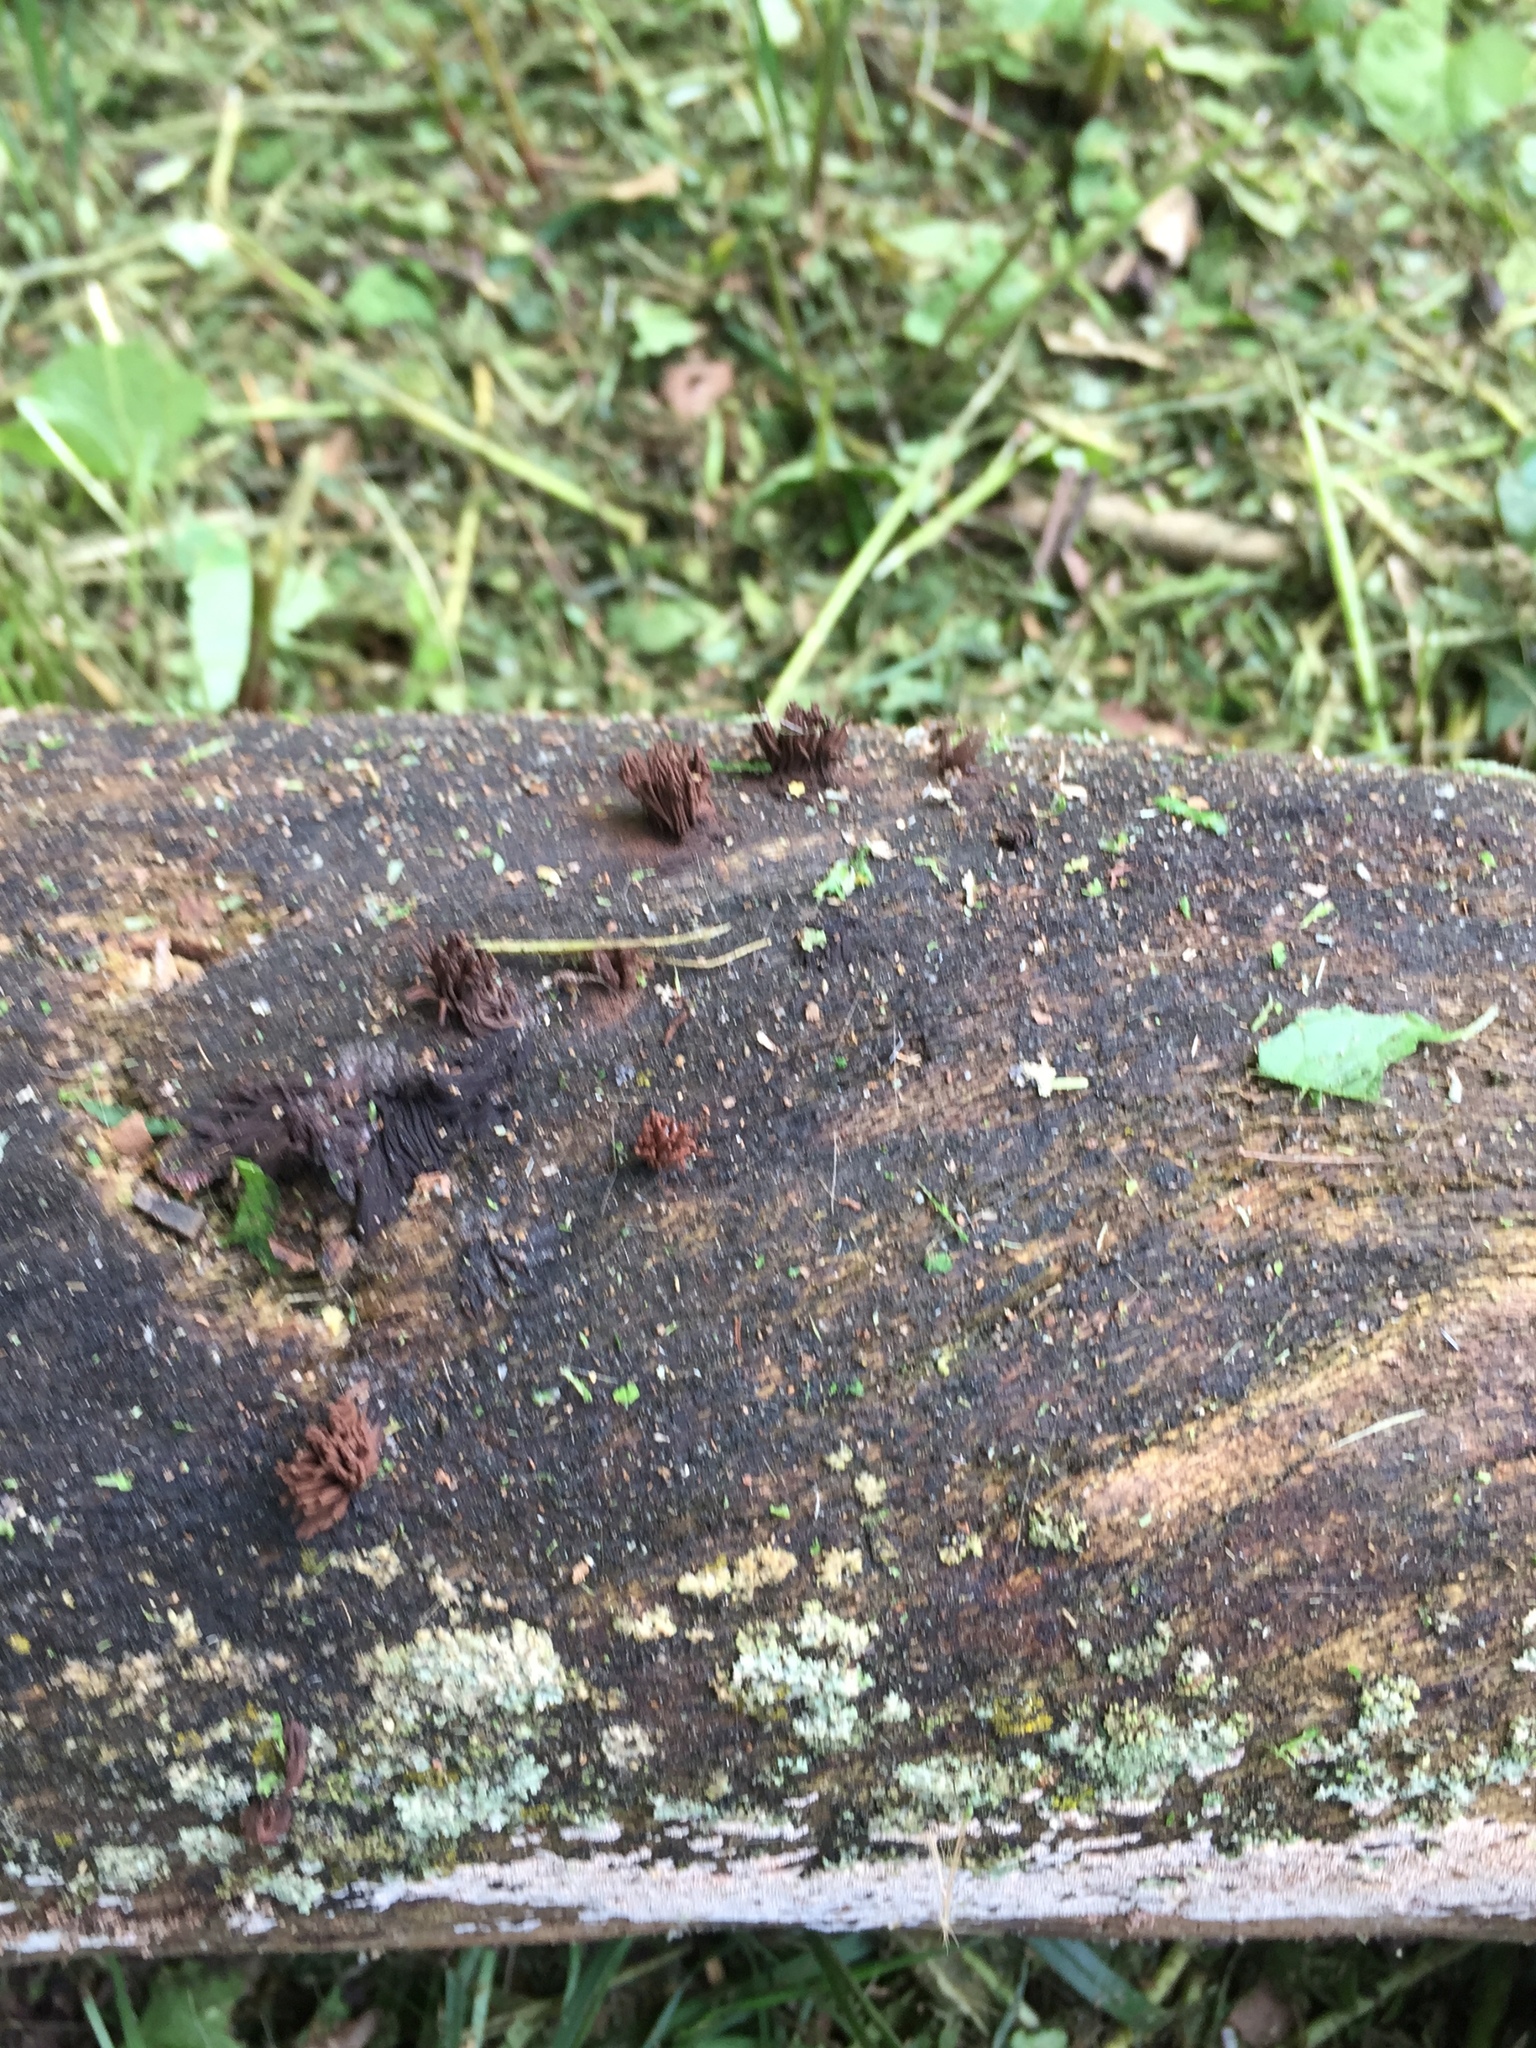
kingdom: Protozoa
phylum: Mycetozoa
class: Myxomycetes
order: Stemonitidales
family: Stemonitidaceae
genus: Stemonitis
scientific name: Stemonitis splendens
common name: Chocolate tube slime
